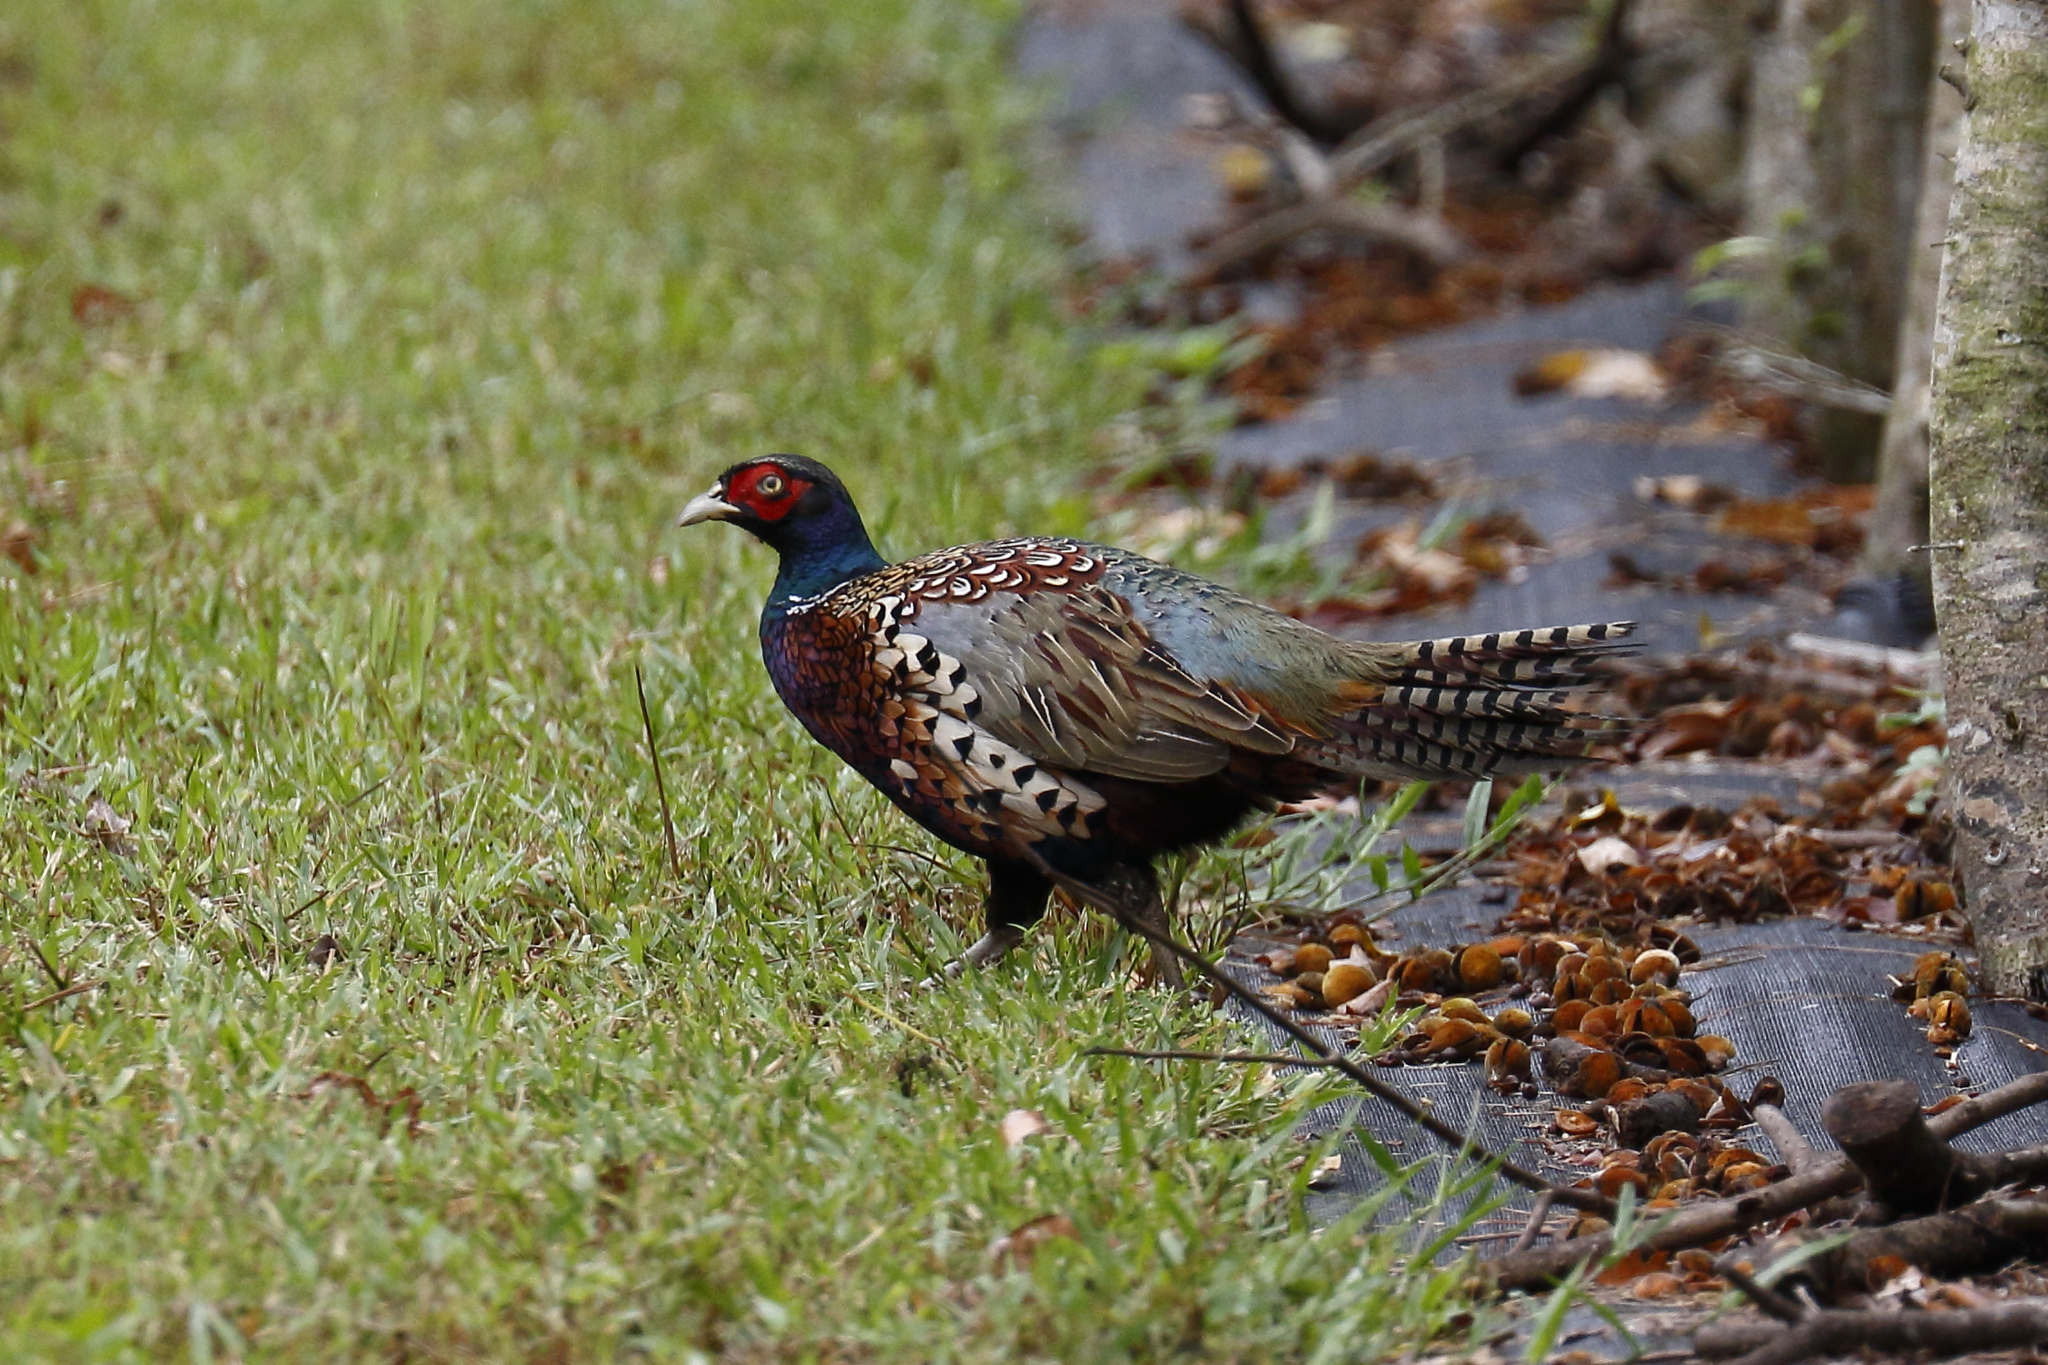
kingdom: Animalia
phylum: Chordata
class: Aves
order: Galliformes
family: Phasianidae
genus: Phasianus
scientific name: Phasianus colchicus
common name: Common pheasant
